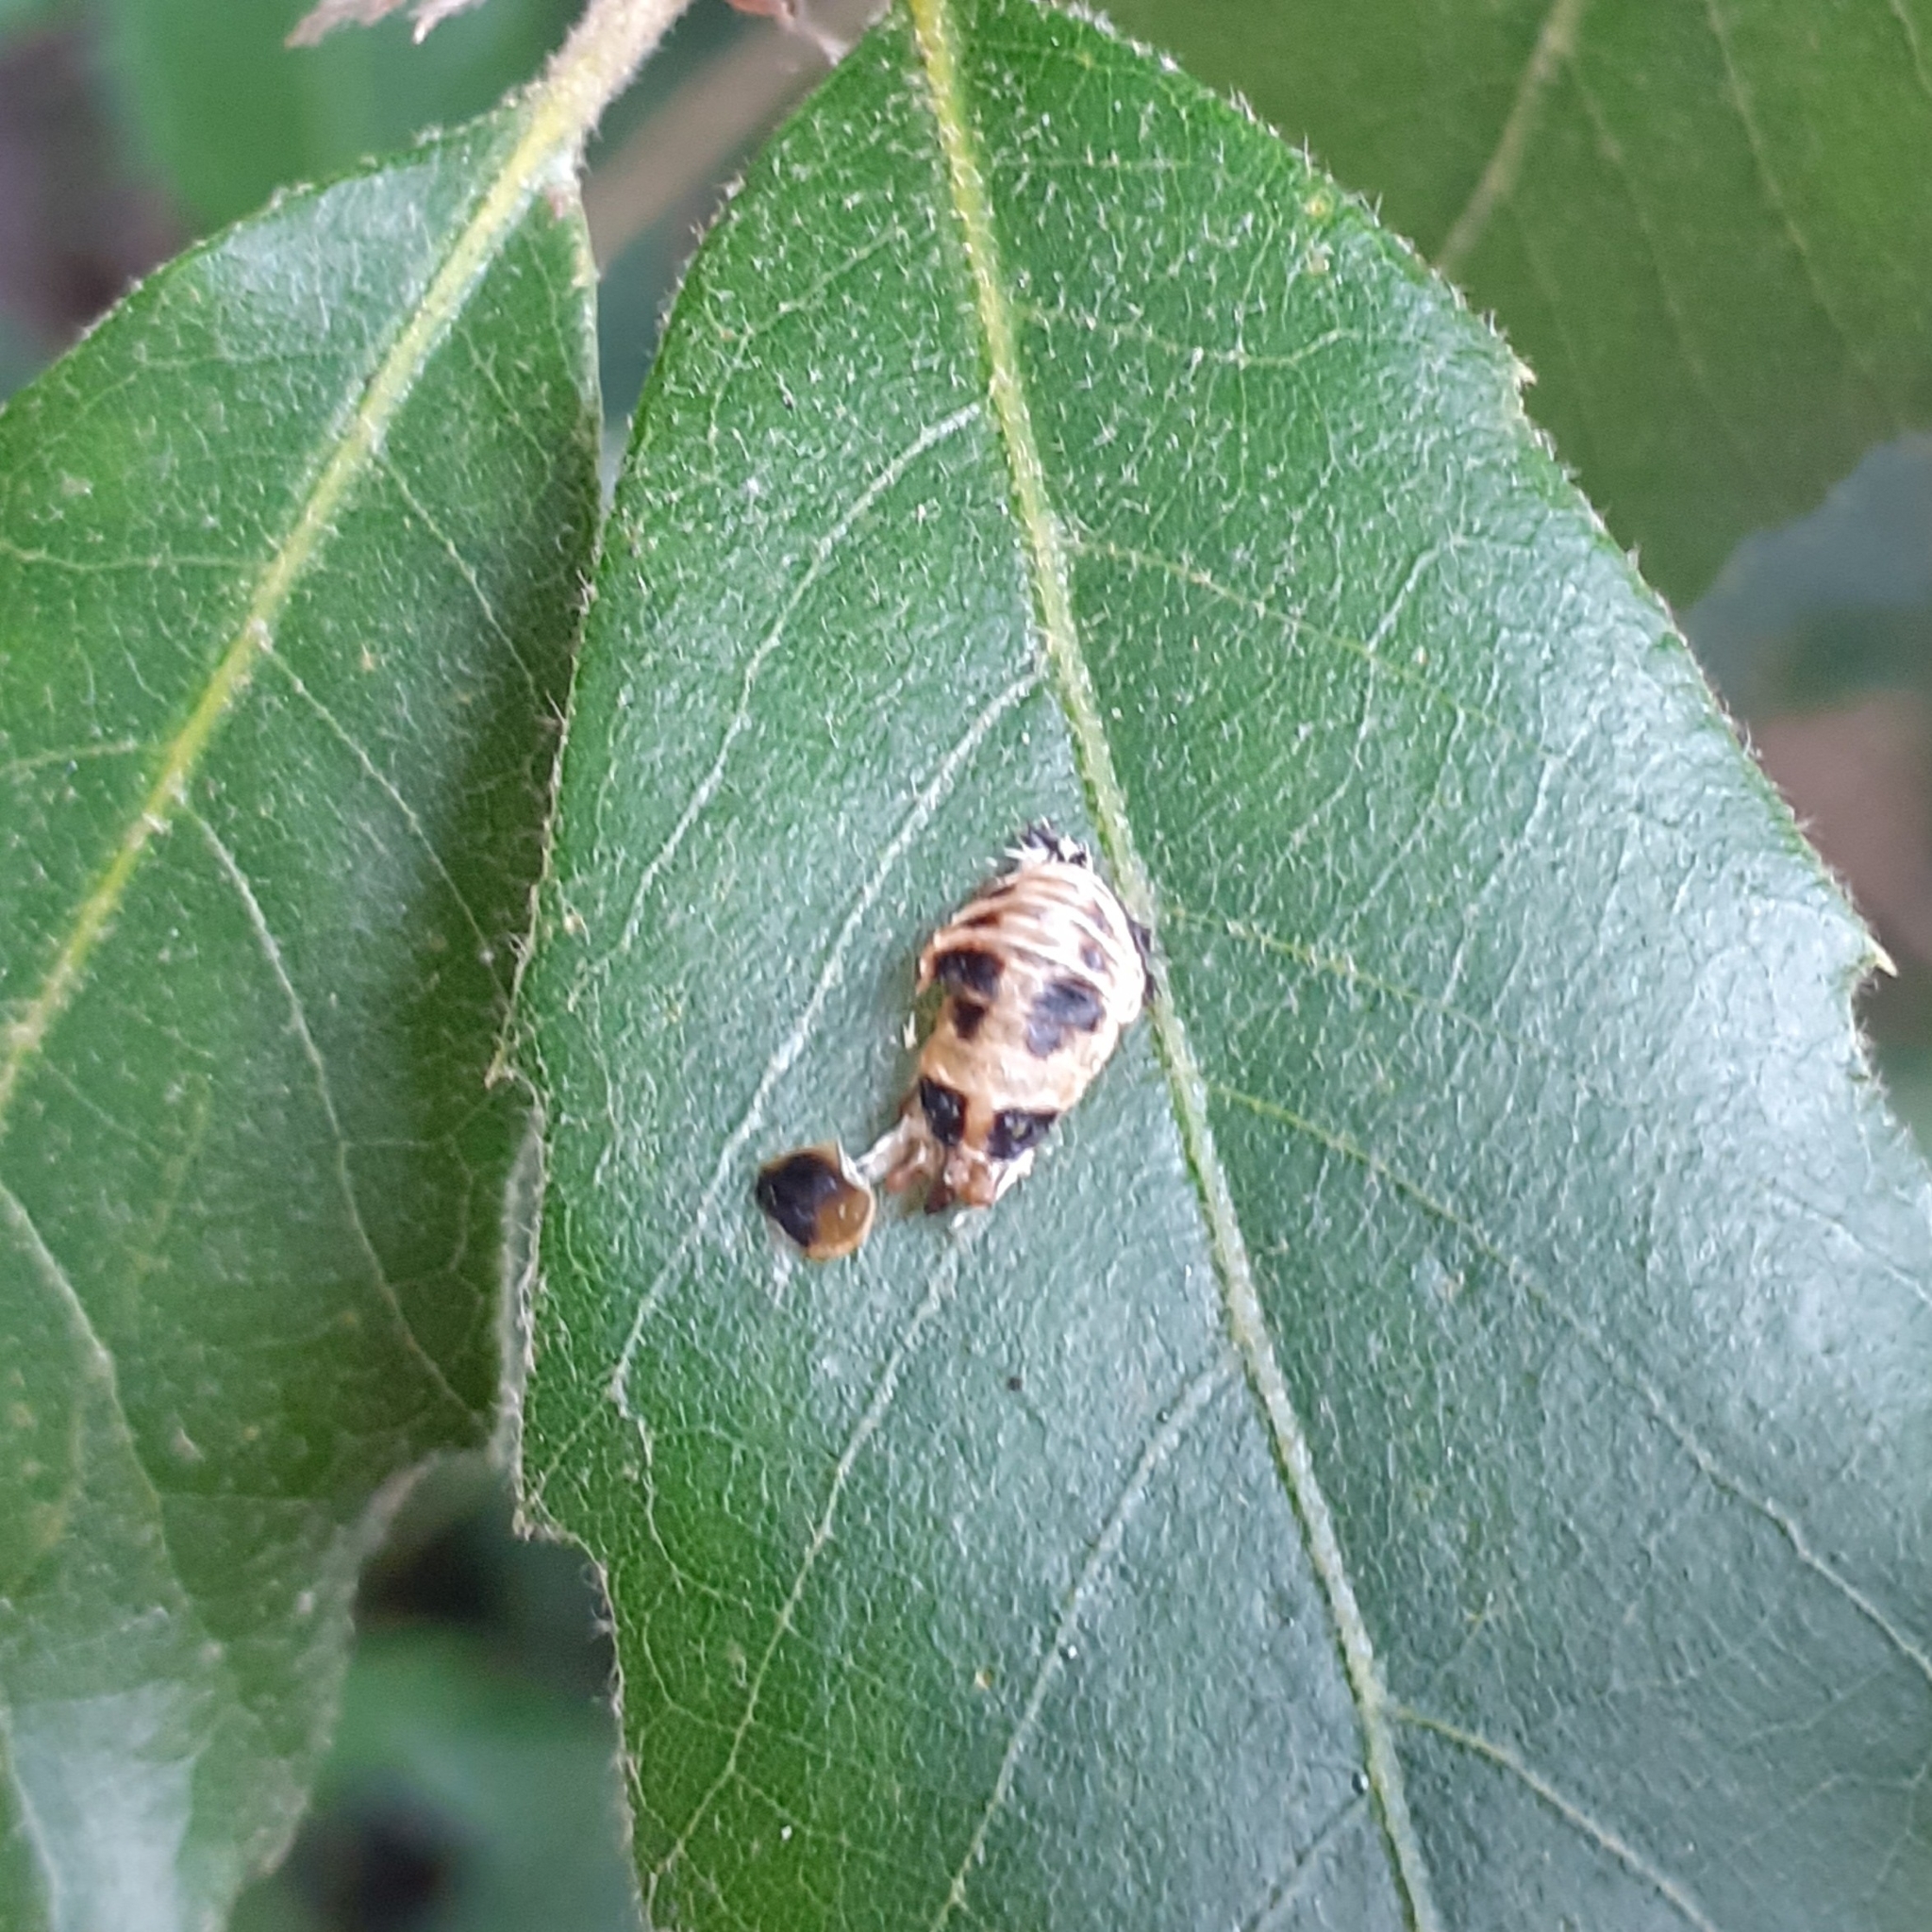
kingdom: Animalia
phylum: Arthropoda
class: Insecta
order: Coleoptera
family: Coccinellidae
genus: Harmonia
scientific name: Harmonia axyridis
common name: Harlequin ladybird
